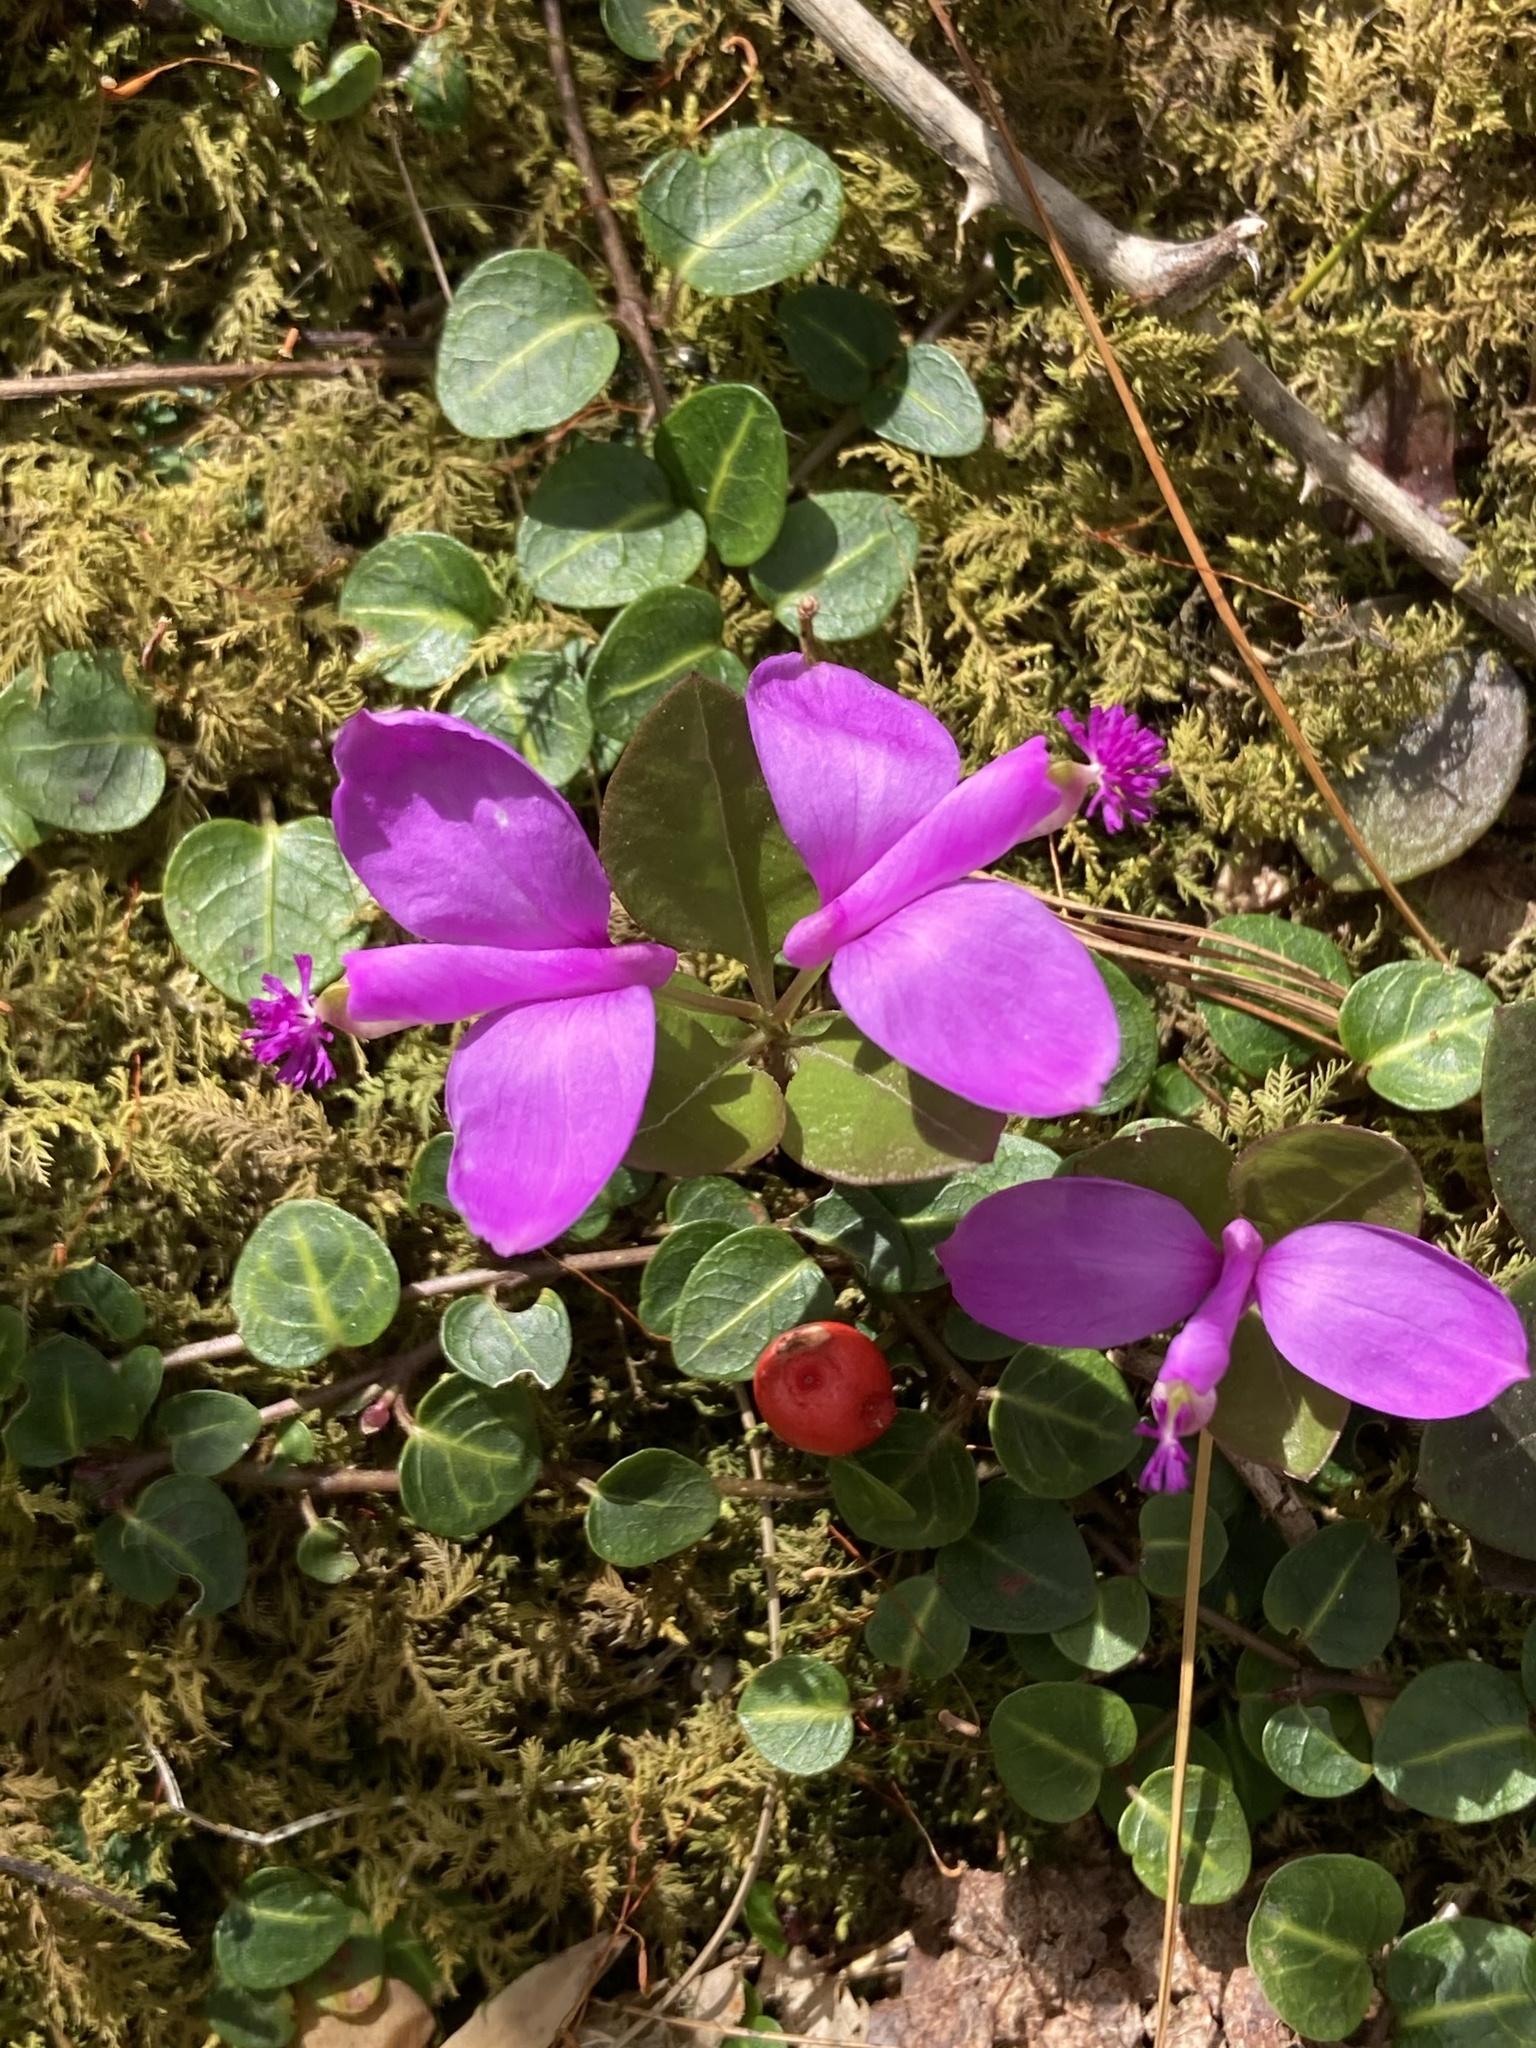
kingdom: Plantae
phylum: Tracheophyta
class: Magnoliopsida
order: Fabales
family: Polygalaceae
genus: Polygaloides
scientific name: Polygaloides paucifolia
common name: Bird-on-the-wing
